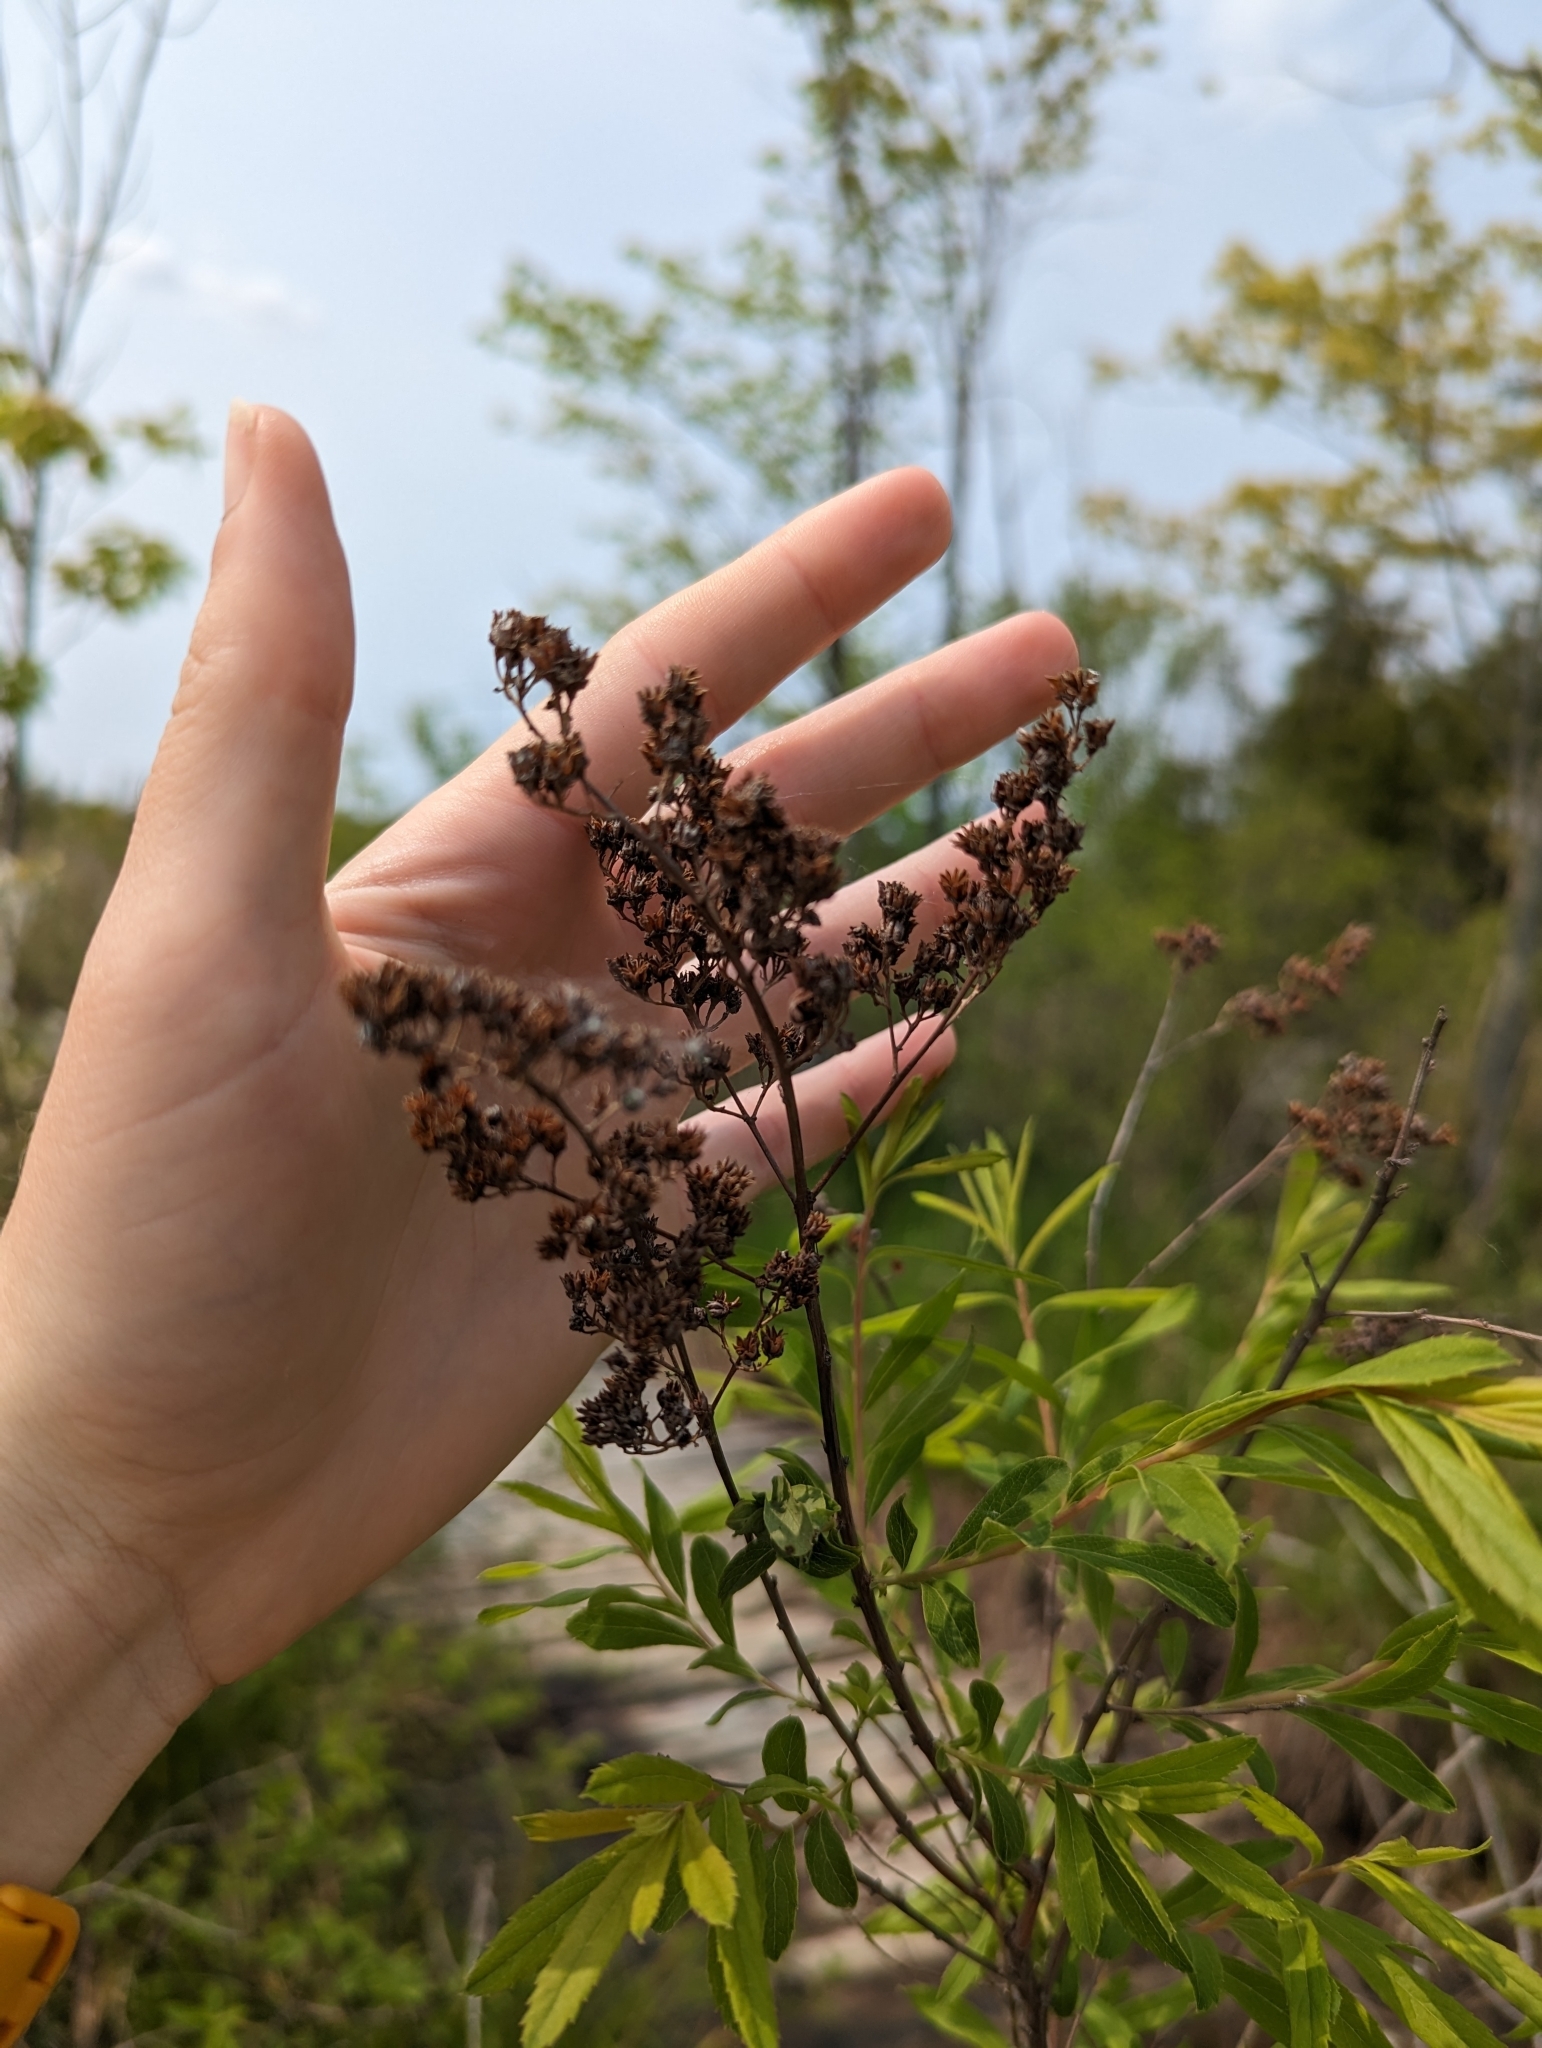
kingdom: Plantae
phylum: Tracheophyta
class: Magnoliopsida
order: Rosales
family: Rosaceae
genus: Spiraea
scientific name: Spiraea alba
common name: Pale bridewort
